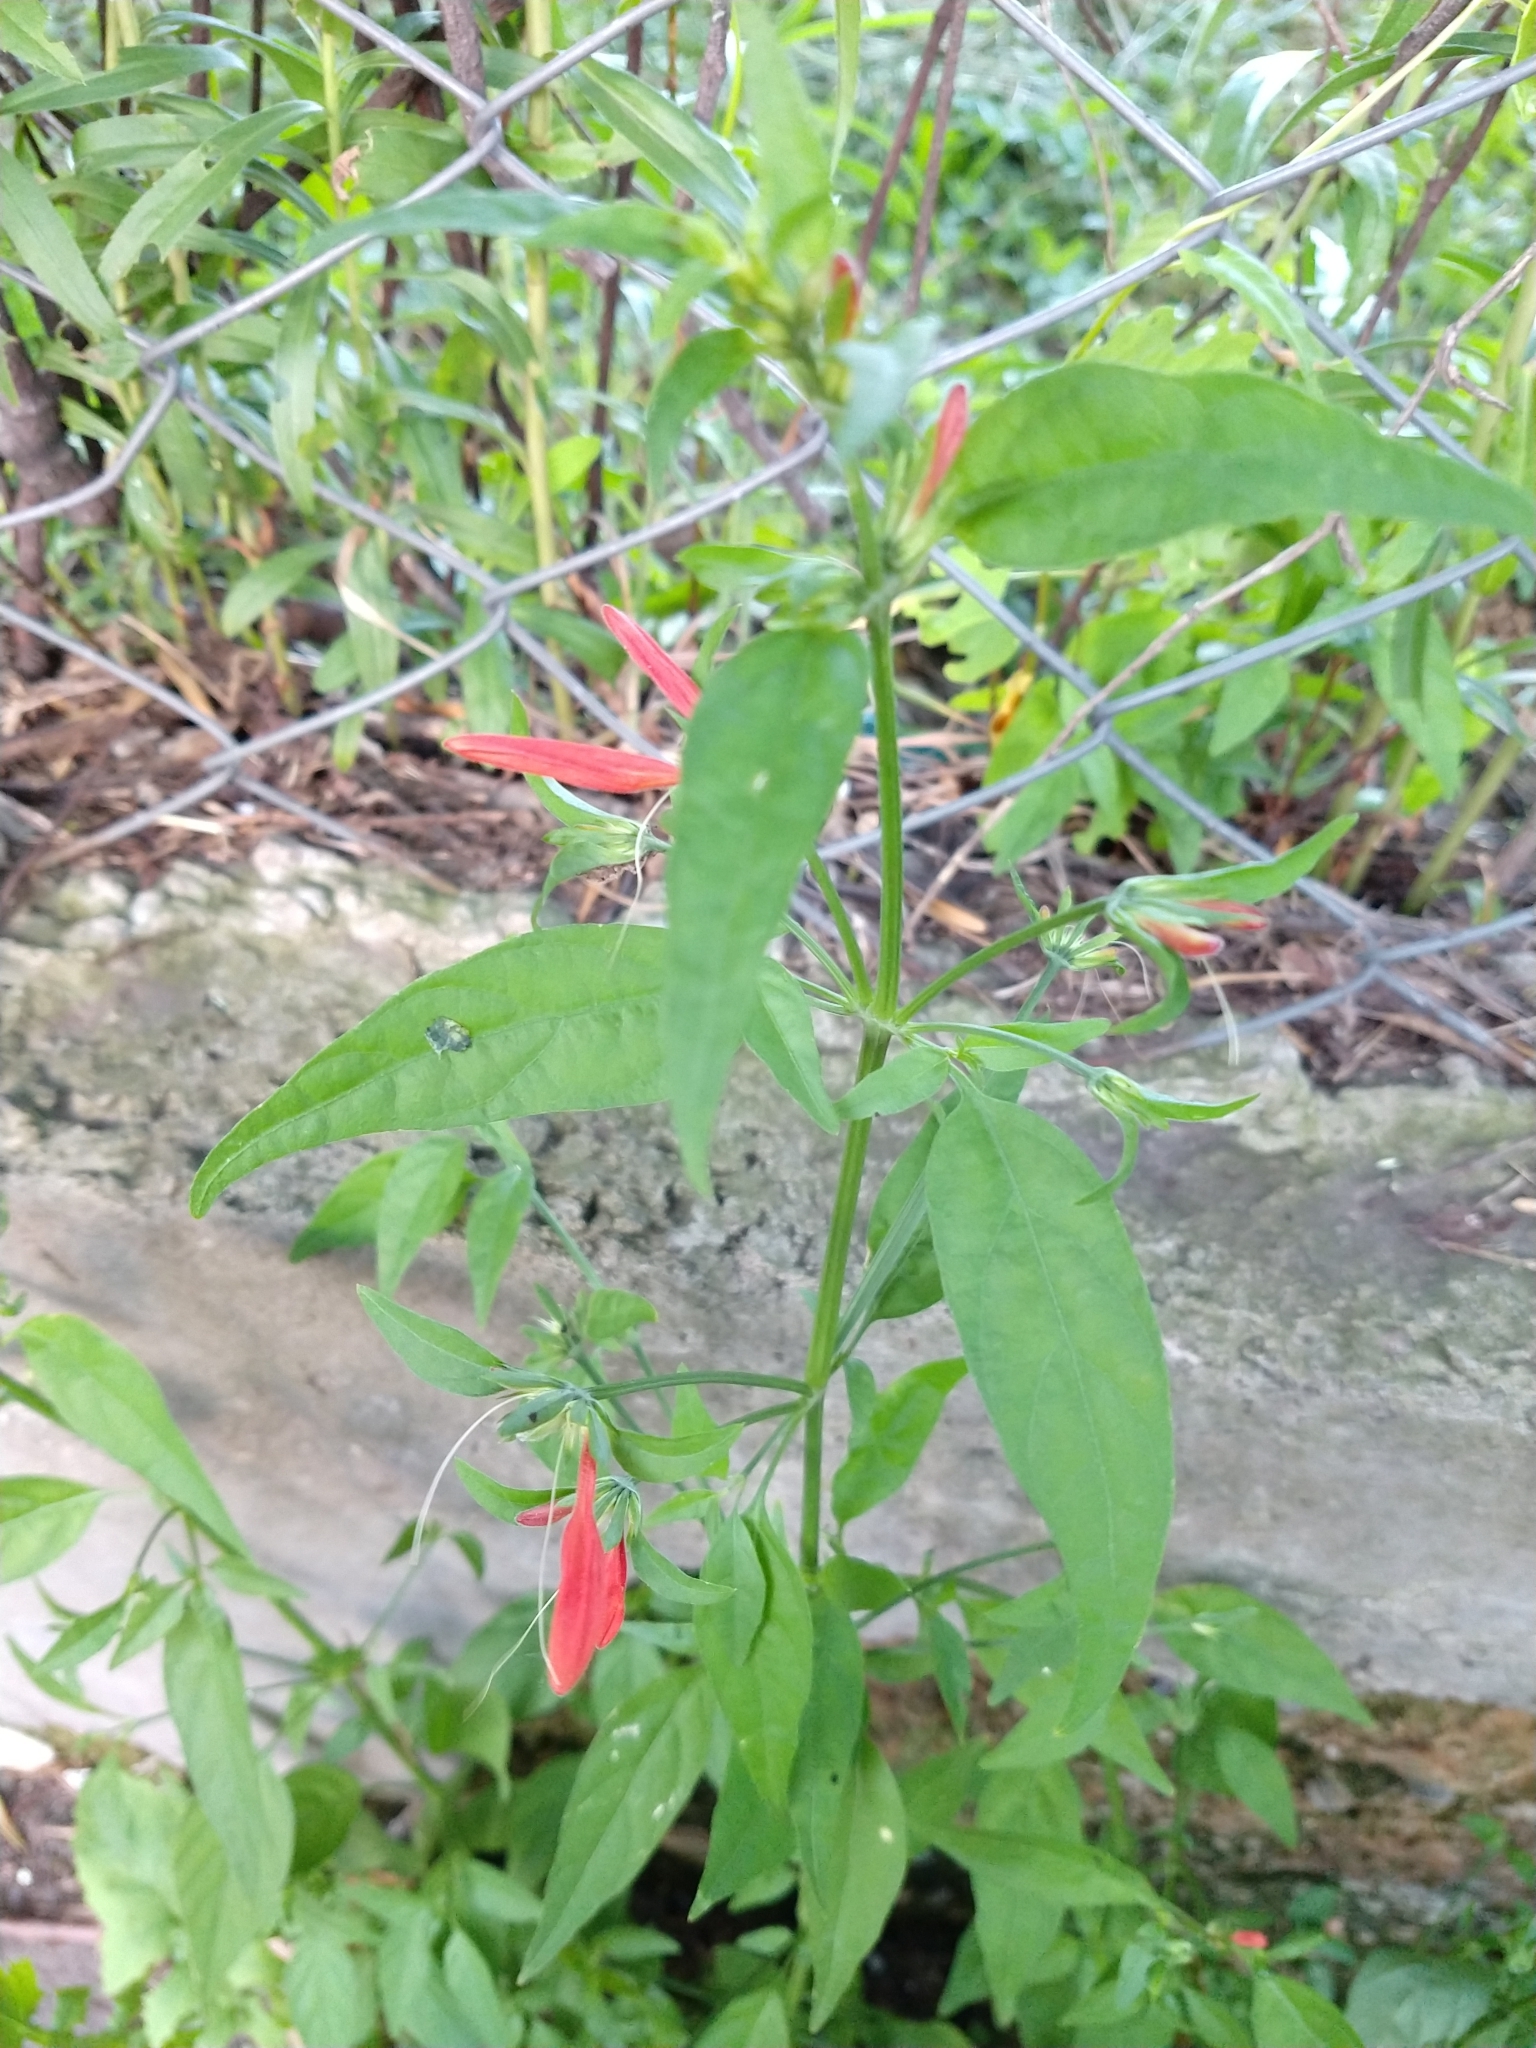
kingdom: Plantae
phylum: Tracheophyta
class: Magnoliopsida
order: Lamiales
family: Acanthaceae
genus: Dicliptera
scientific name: Dicliptera squarrosa
